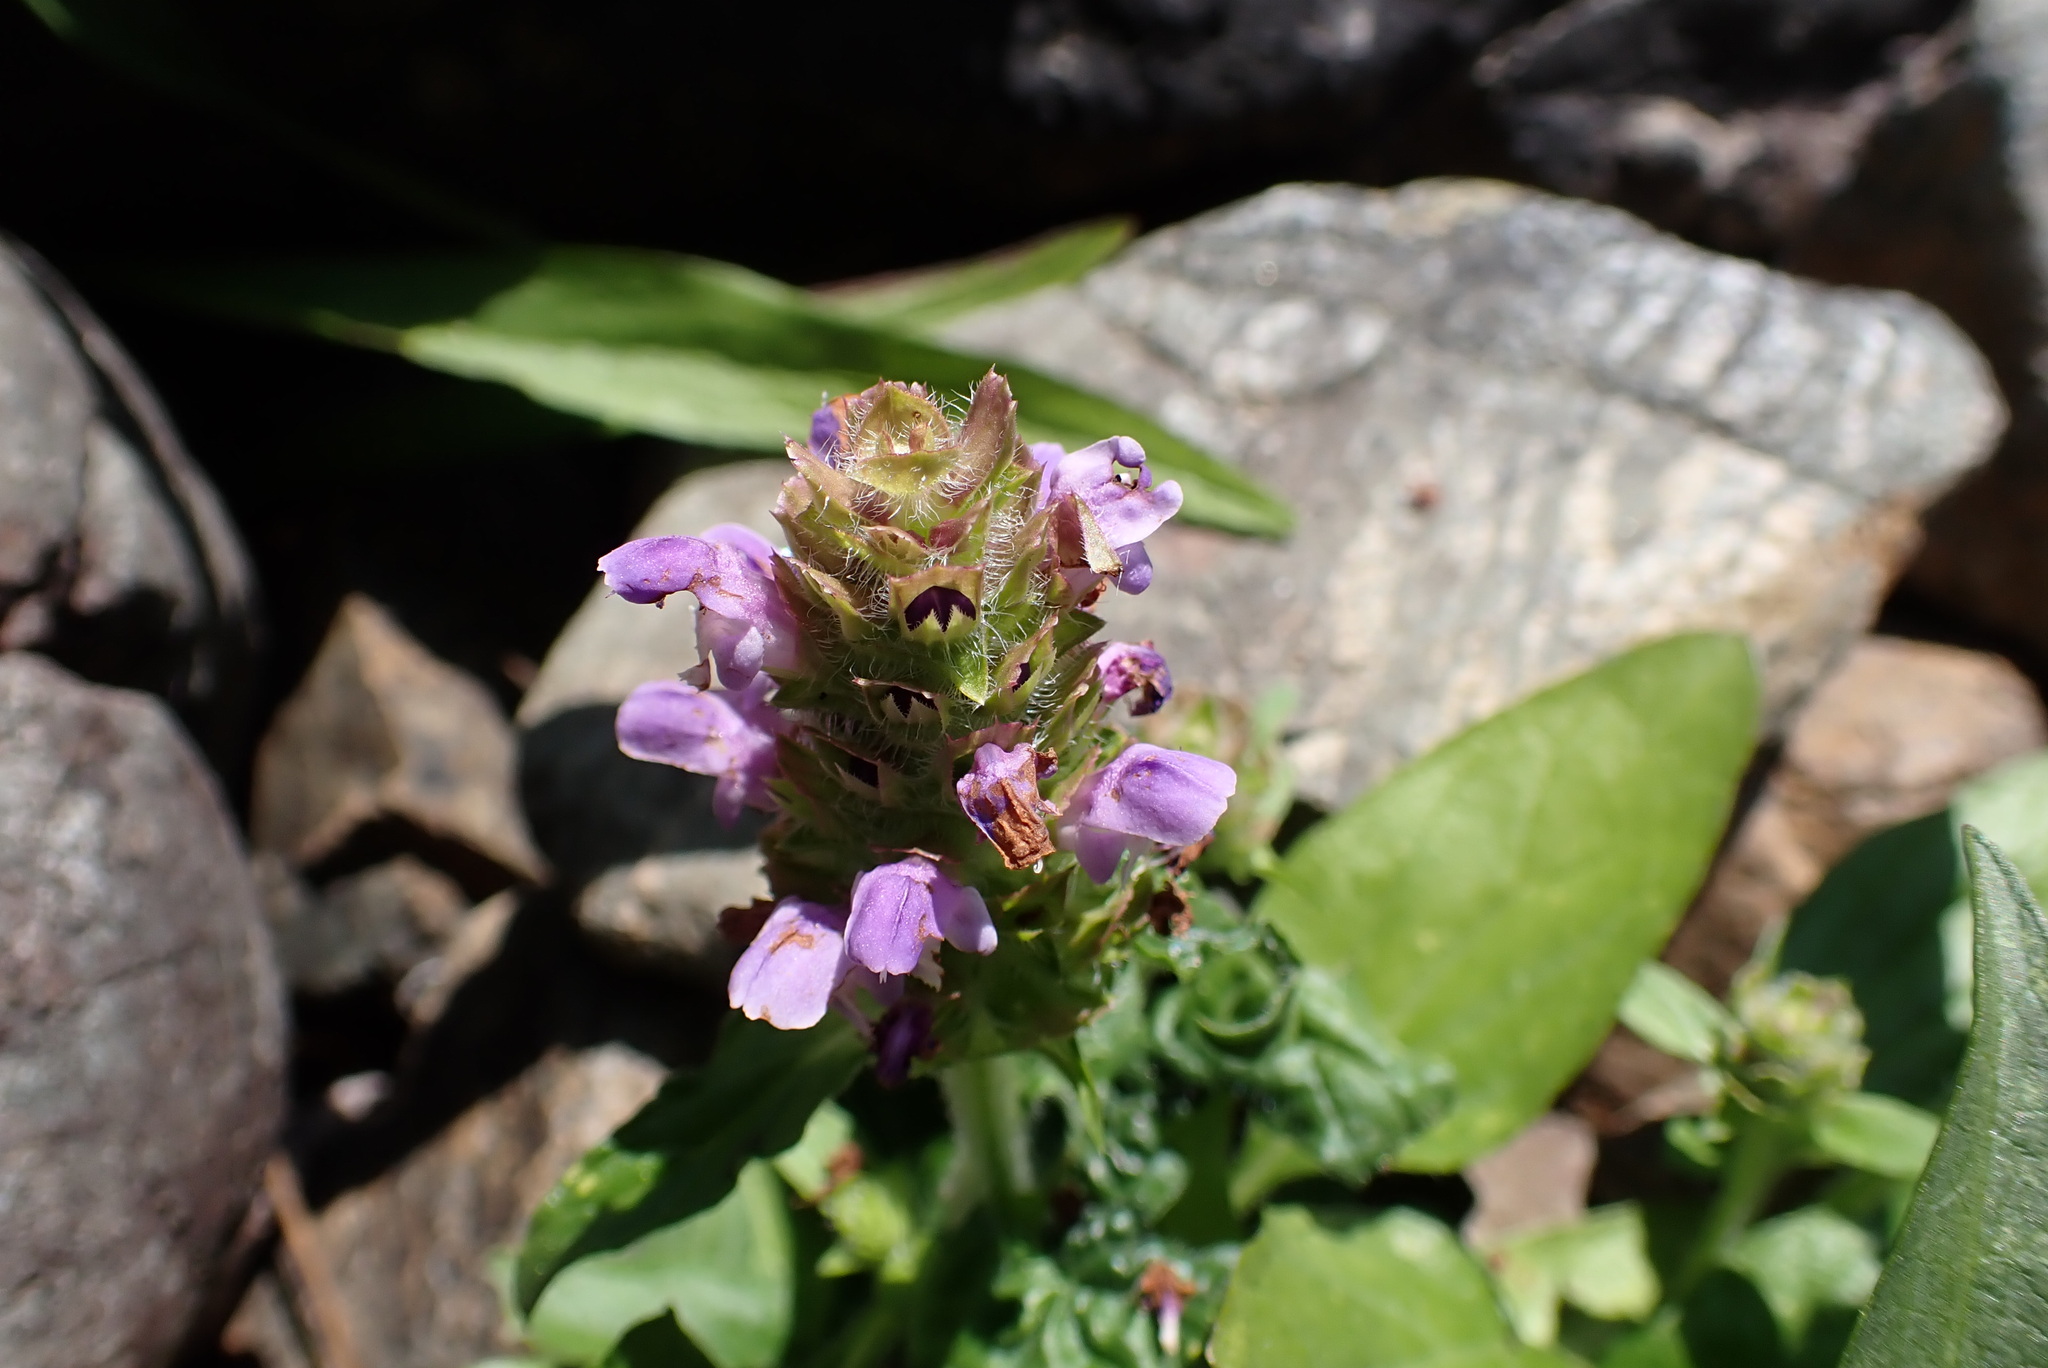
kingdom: Plantae
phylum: Tracheophyta
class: Magnoliopsida
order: Lamiales
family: Lamiaceae
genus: Prunella
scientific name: Prunella vulgaris
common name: Heal-all
